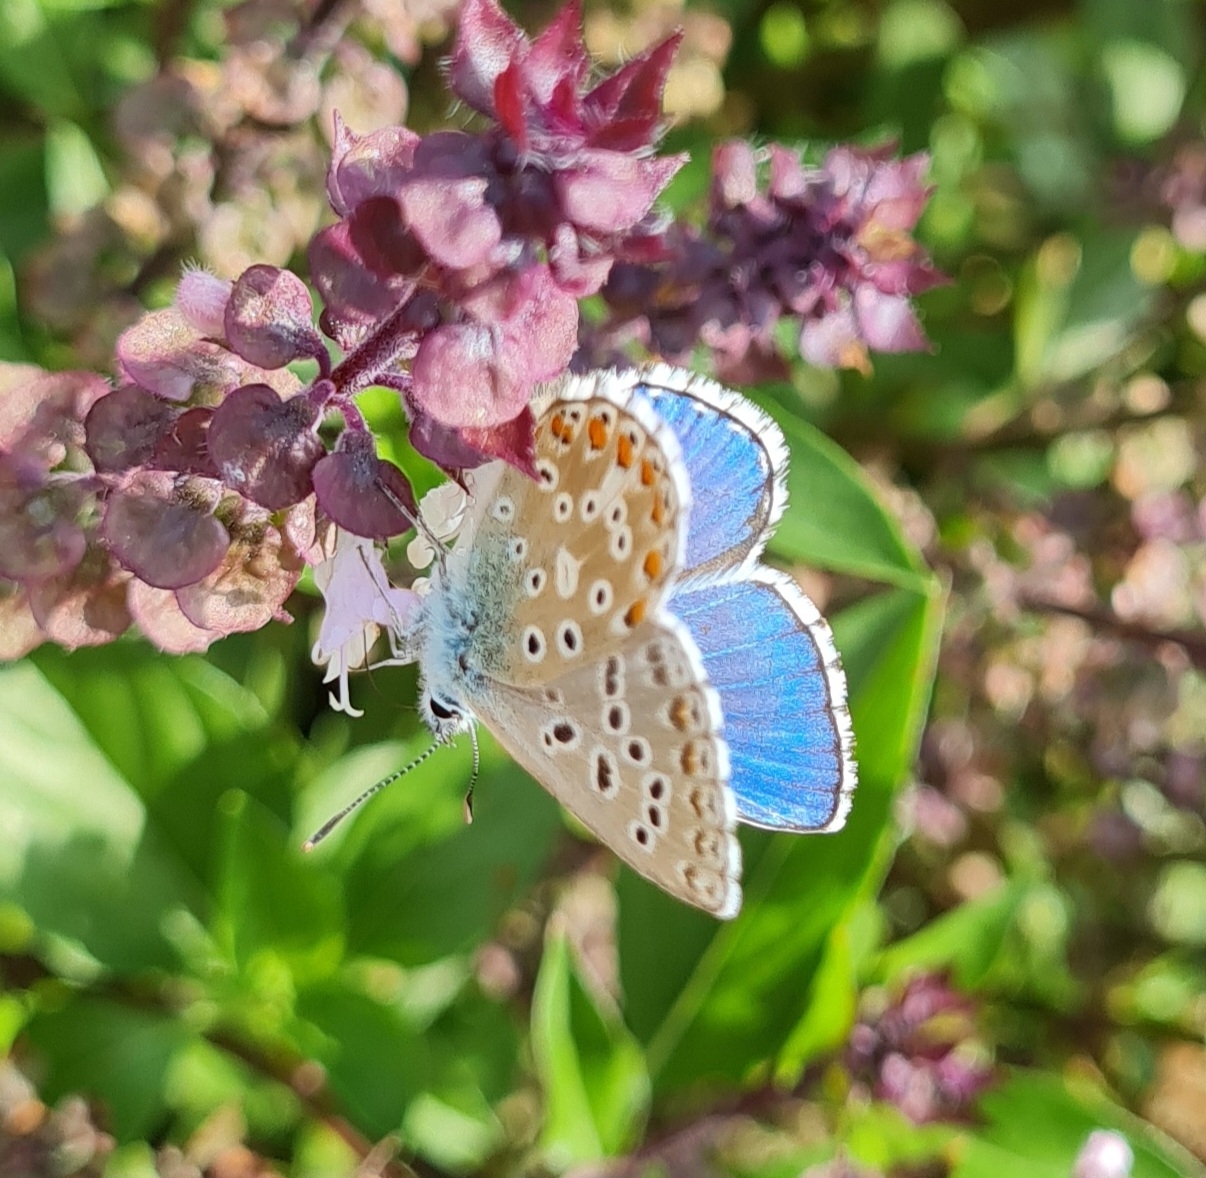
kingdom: Animalia
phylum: Arthropoda
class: Insecta
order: Lepidoptera
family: Lycaenidae
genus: Lysandra
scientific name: Lysandra bellargus
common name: Adonis blue
